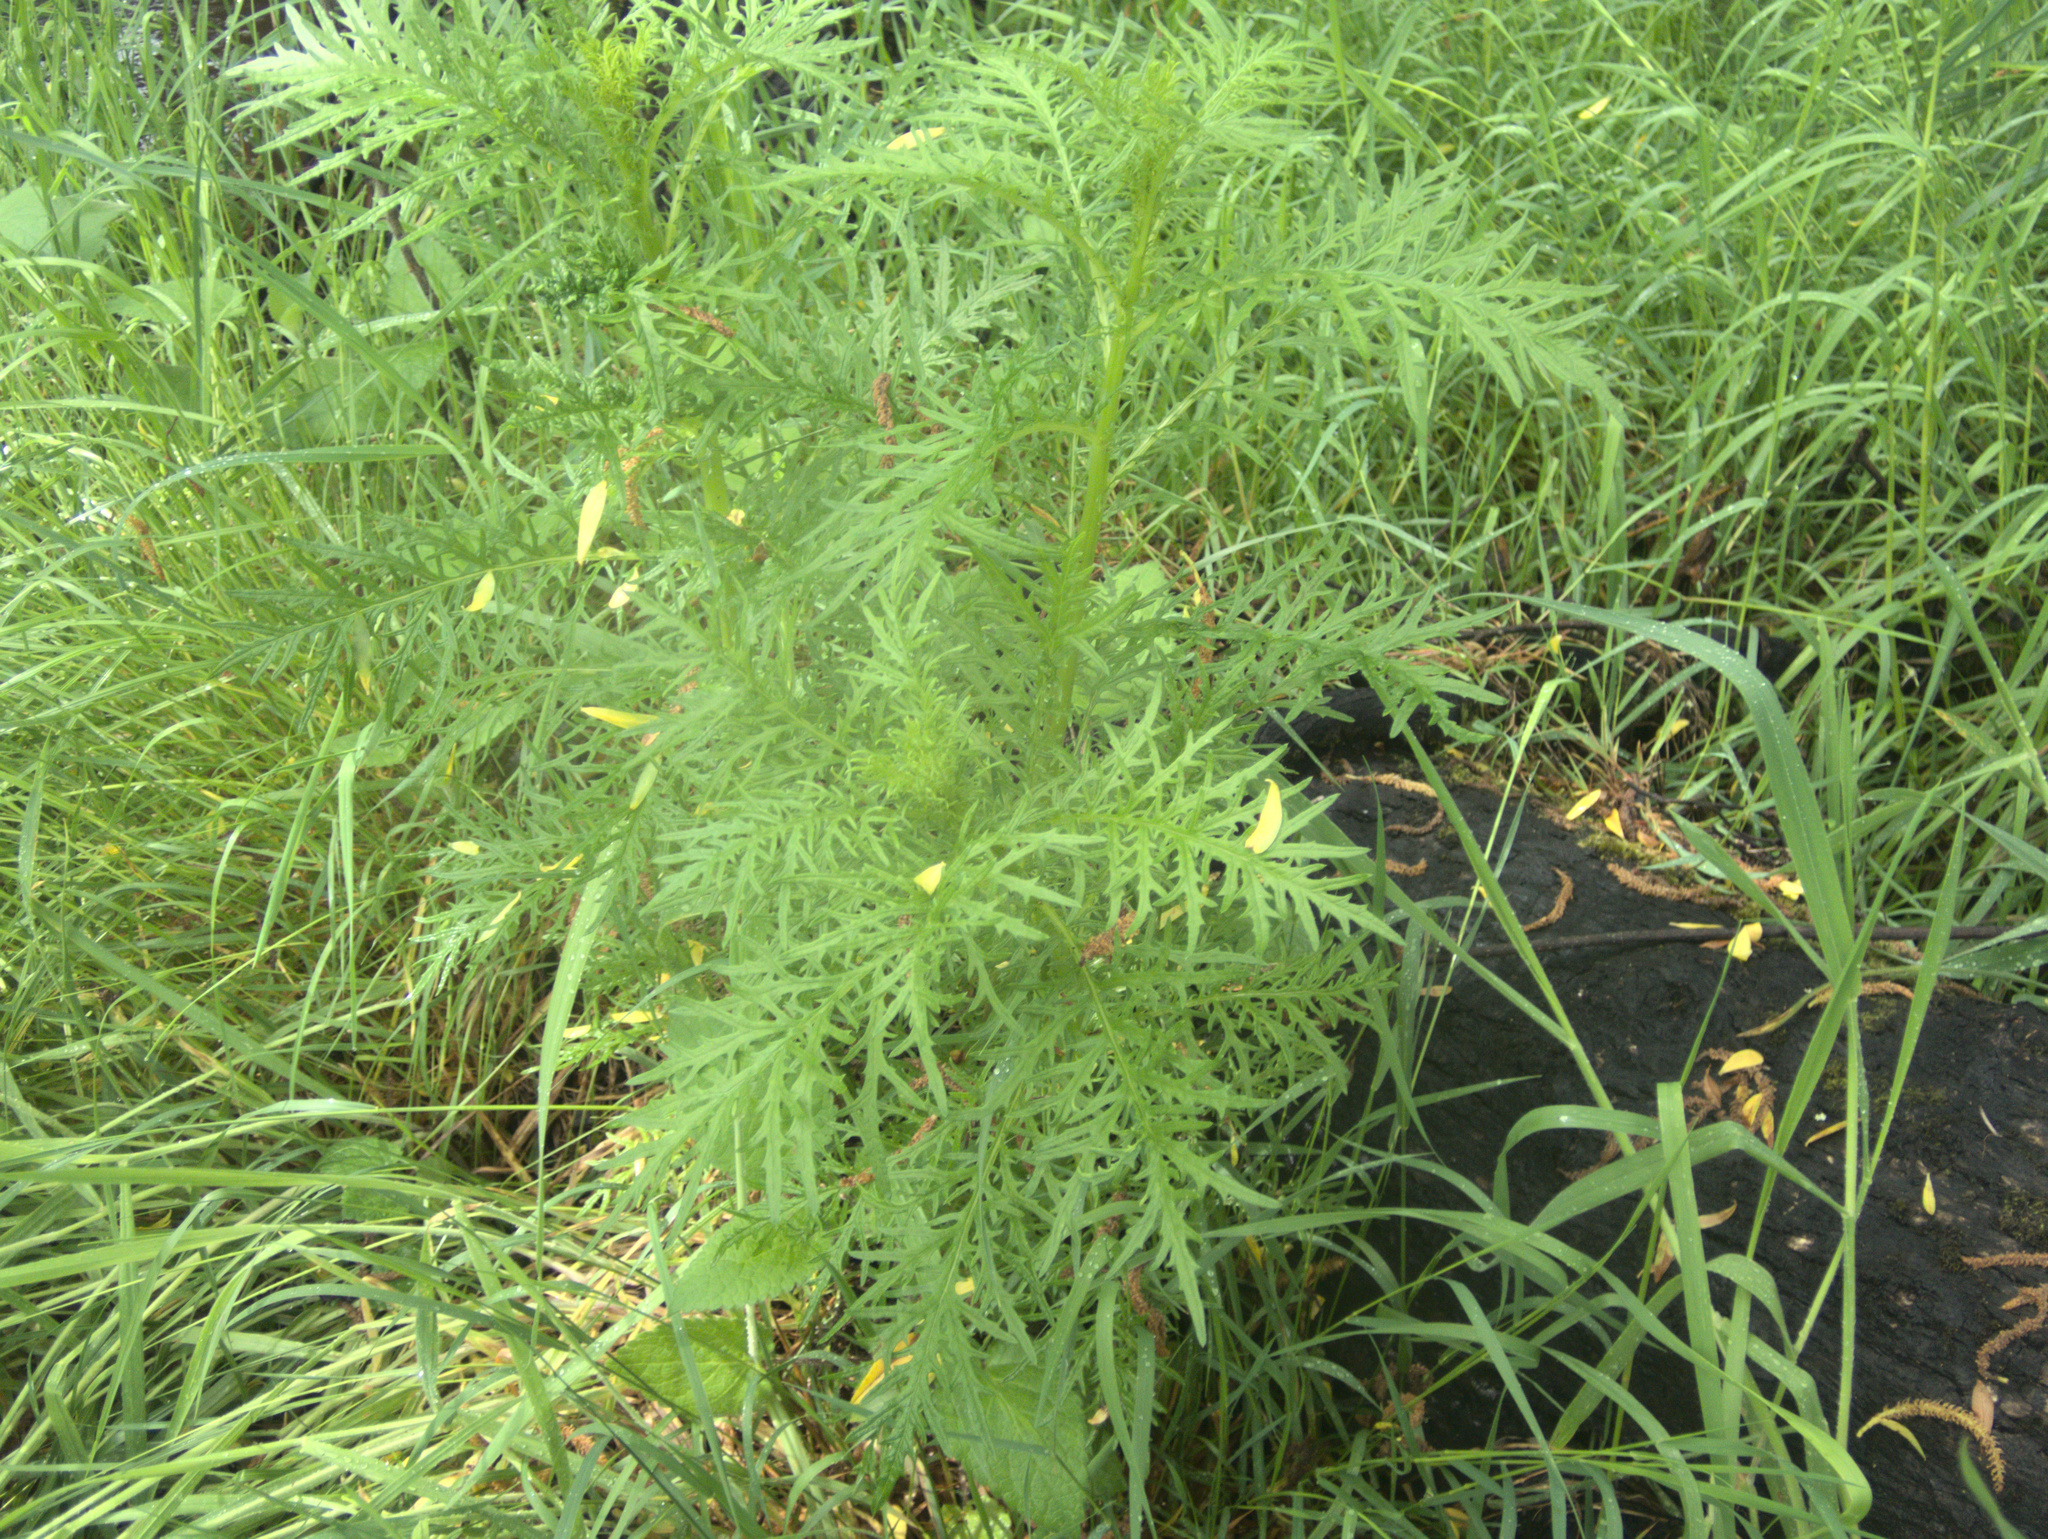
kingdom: Plantae
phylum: Tracheophyta
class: Magnoliopsida
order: Asterales
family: Asteraceae
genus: Senecio
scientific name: Senecio bipinnatisectus
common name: Australian fireweed
